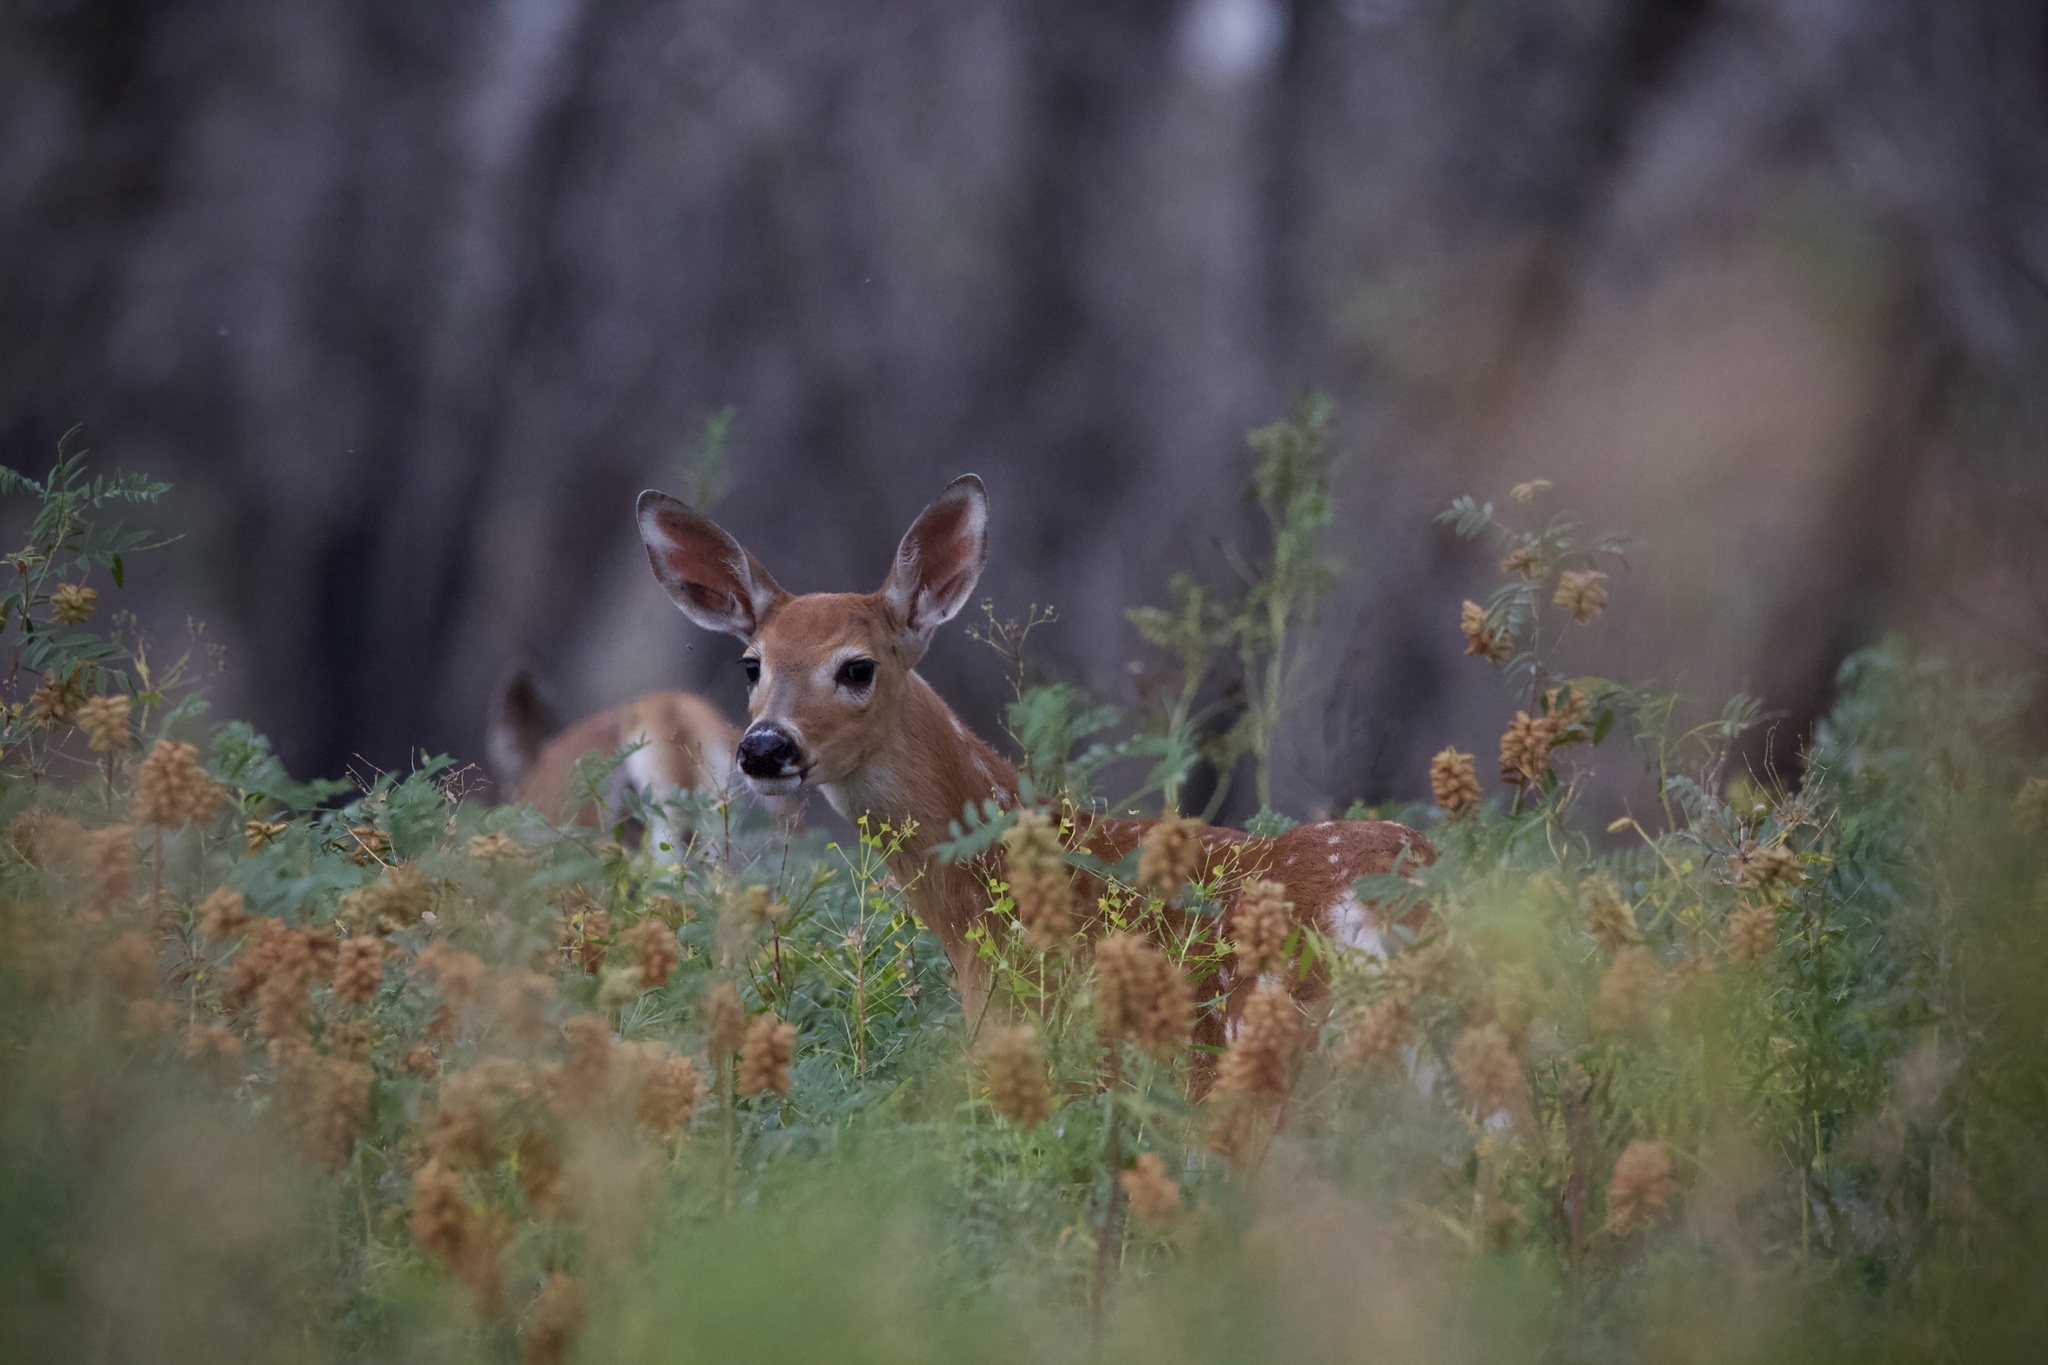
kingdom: Animalia
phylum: Chordata
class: Mammalia
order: Artiodactyla
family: Cervidae
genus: Odocoileus
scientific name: Odocoileus virginianus
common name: White-tailed deer
